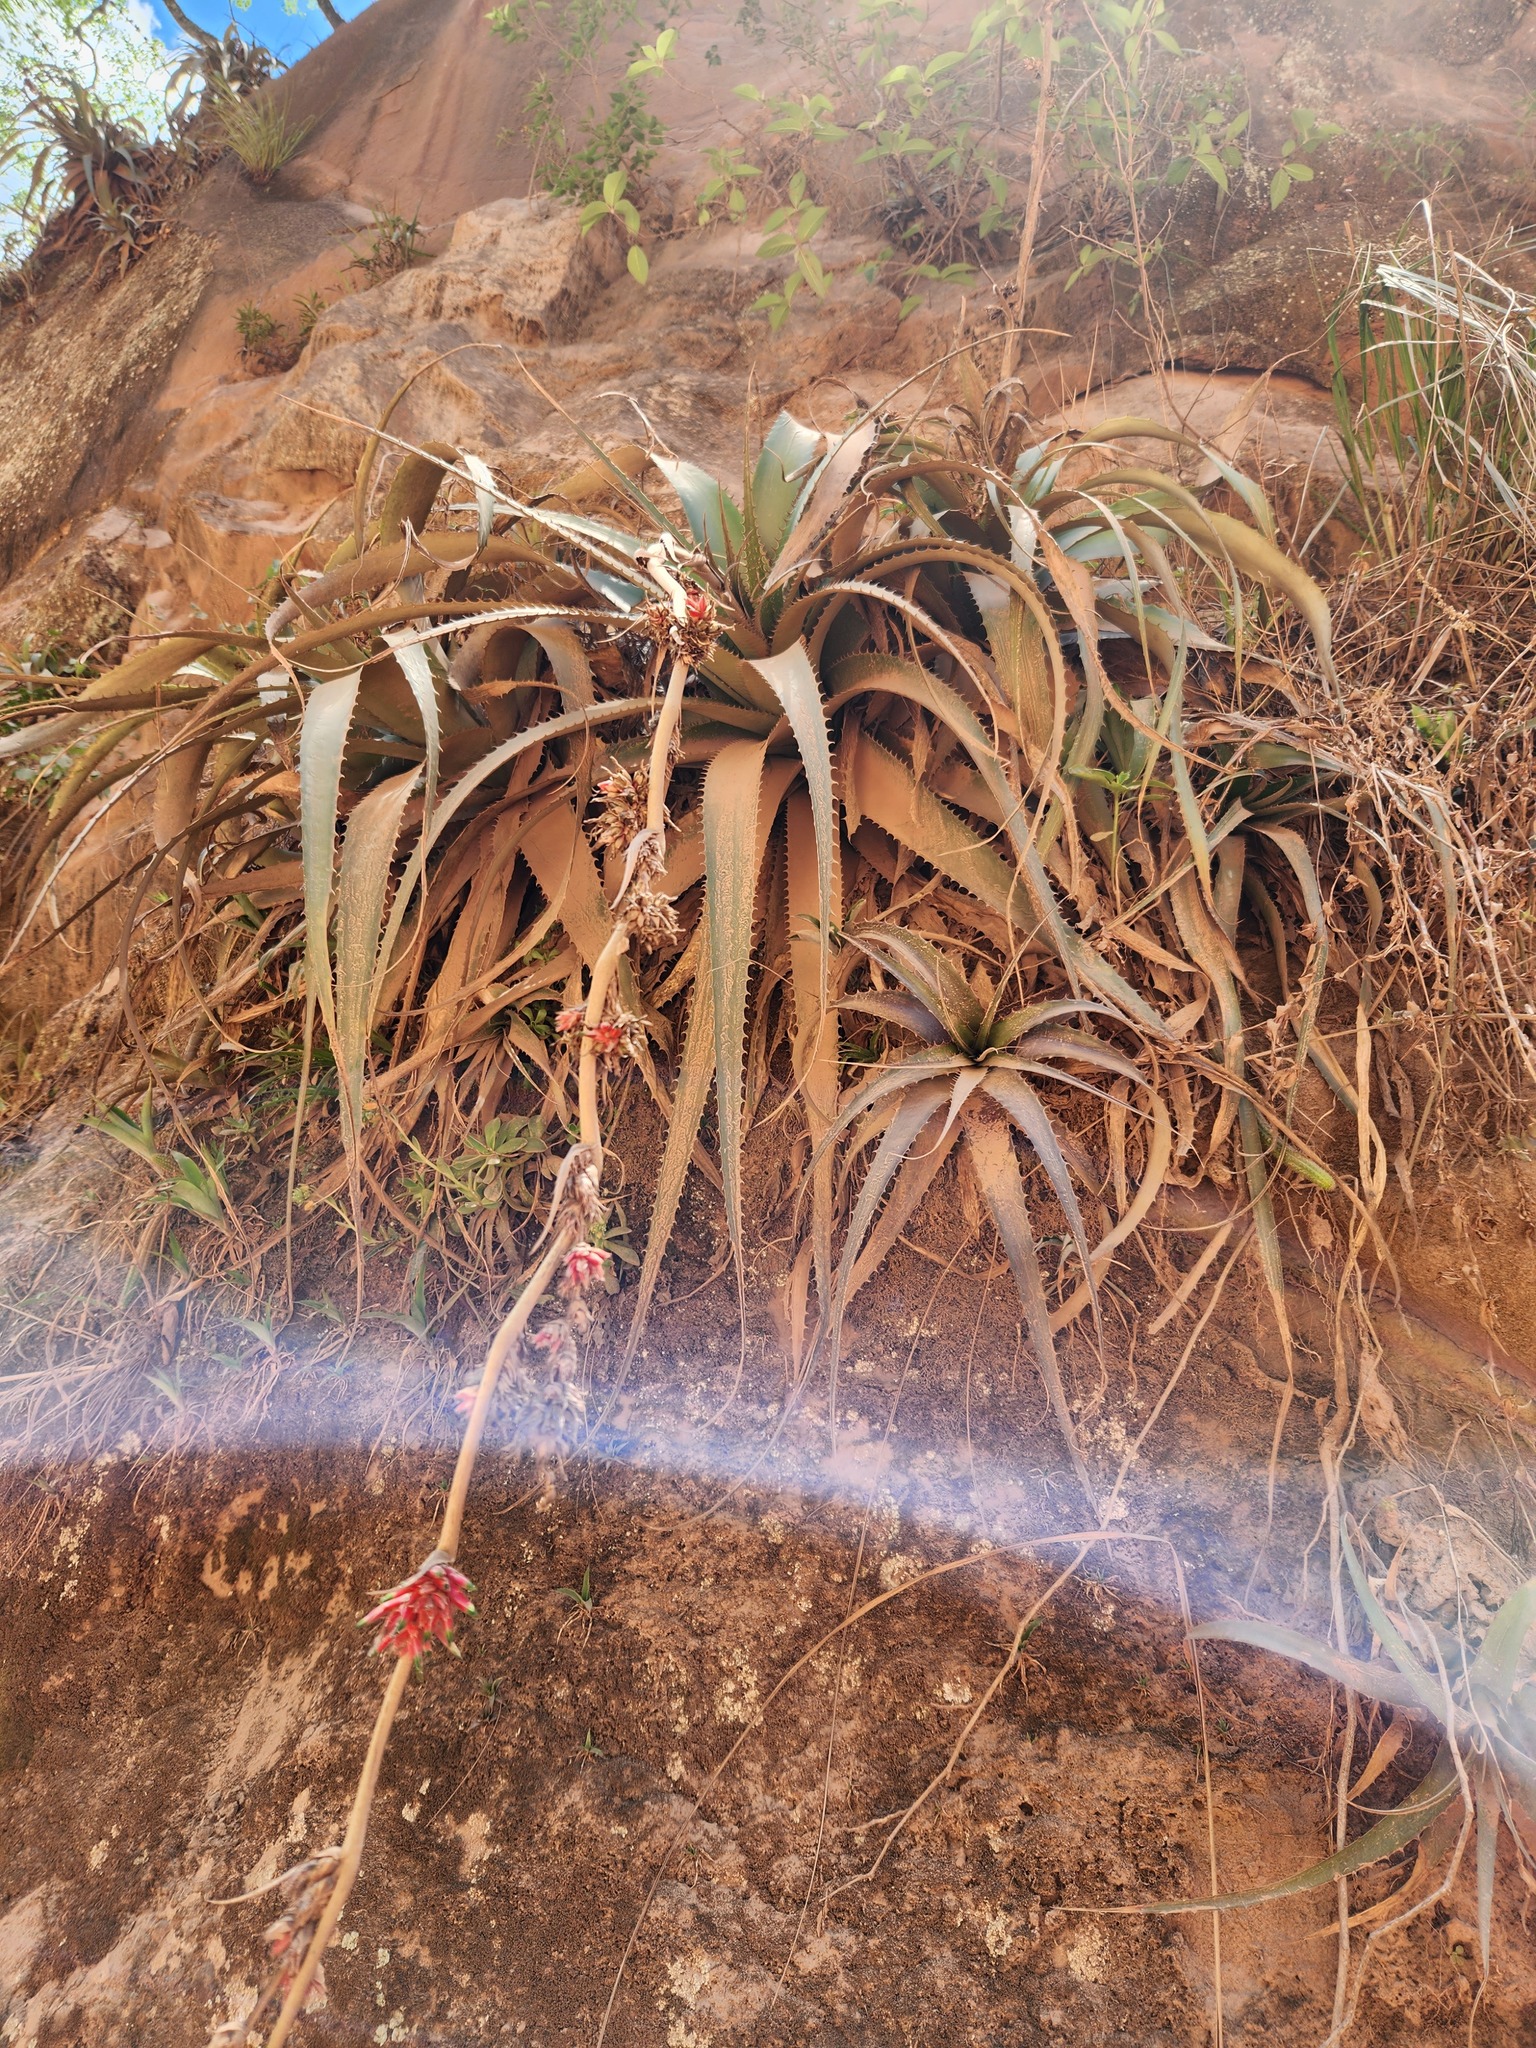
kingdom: Plantae
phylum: Tracheophyta
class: Liliopsida
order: Poales
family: Bromeliaceae
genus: Deuterocohnia
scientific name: Deuterocohnia brevispicata
